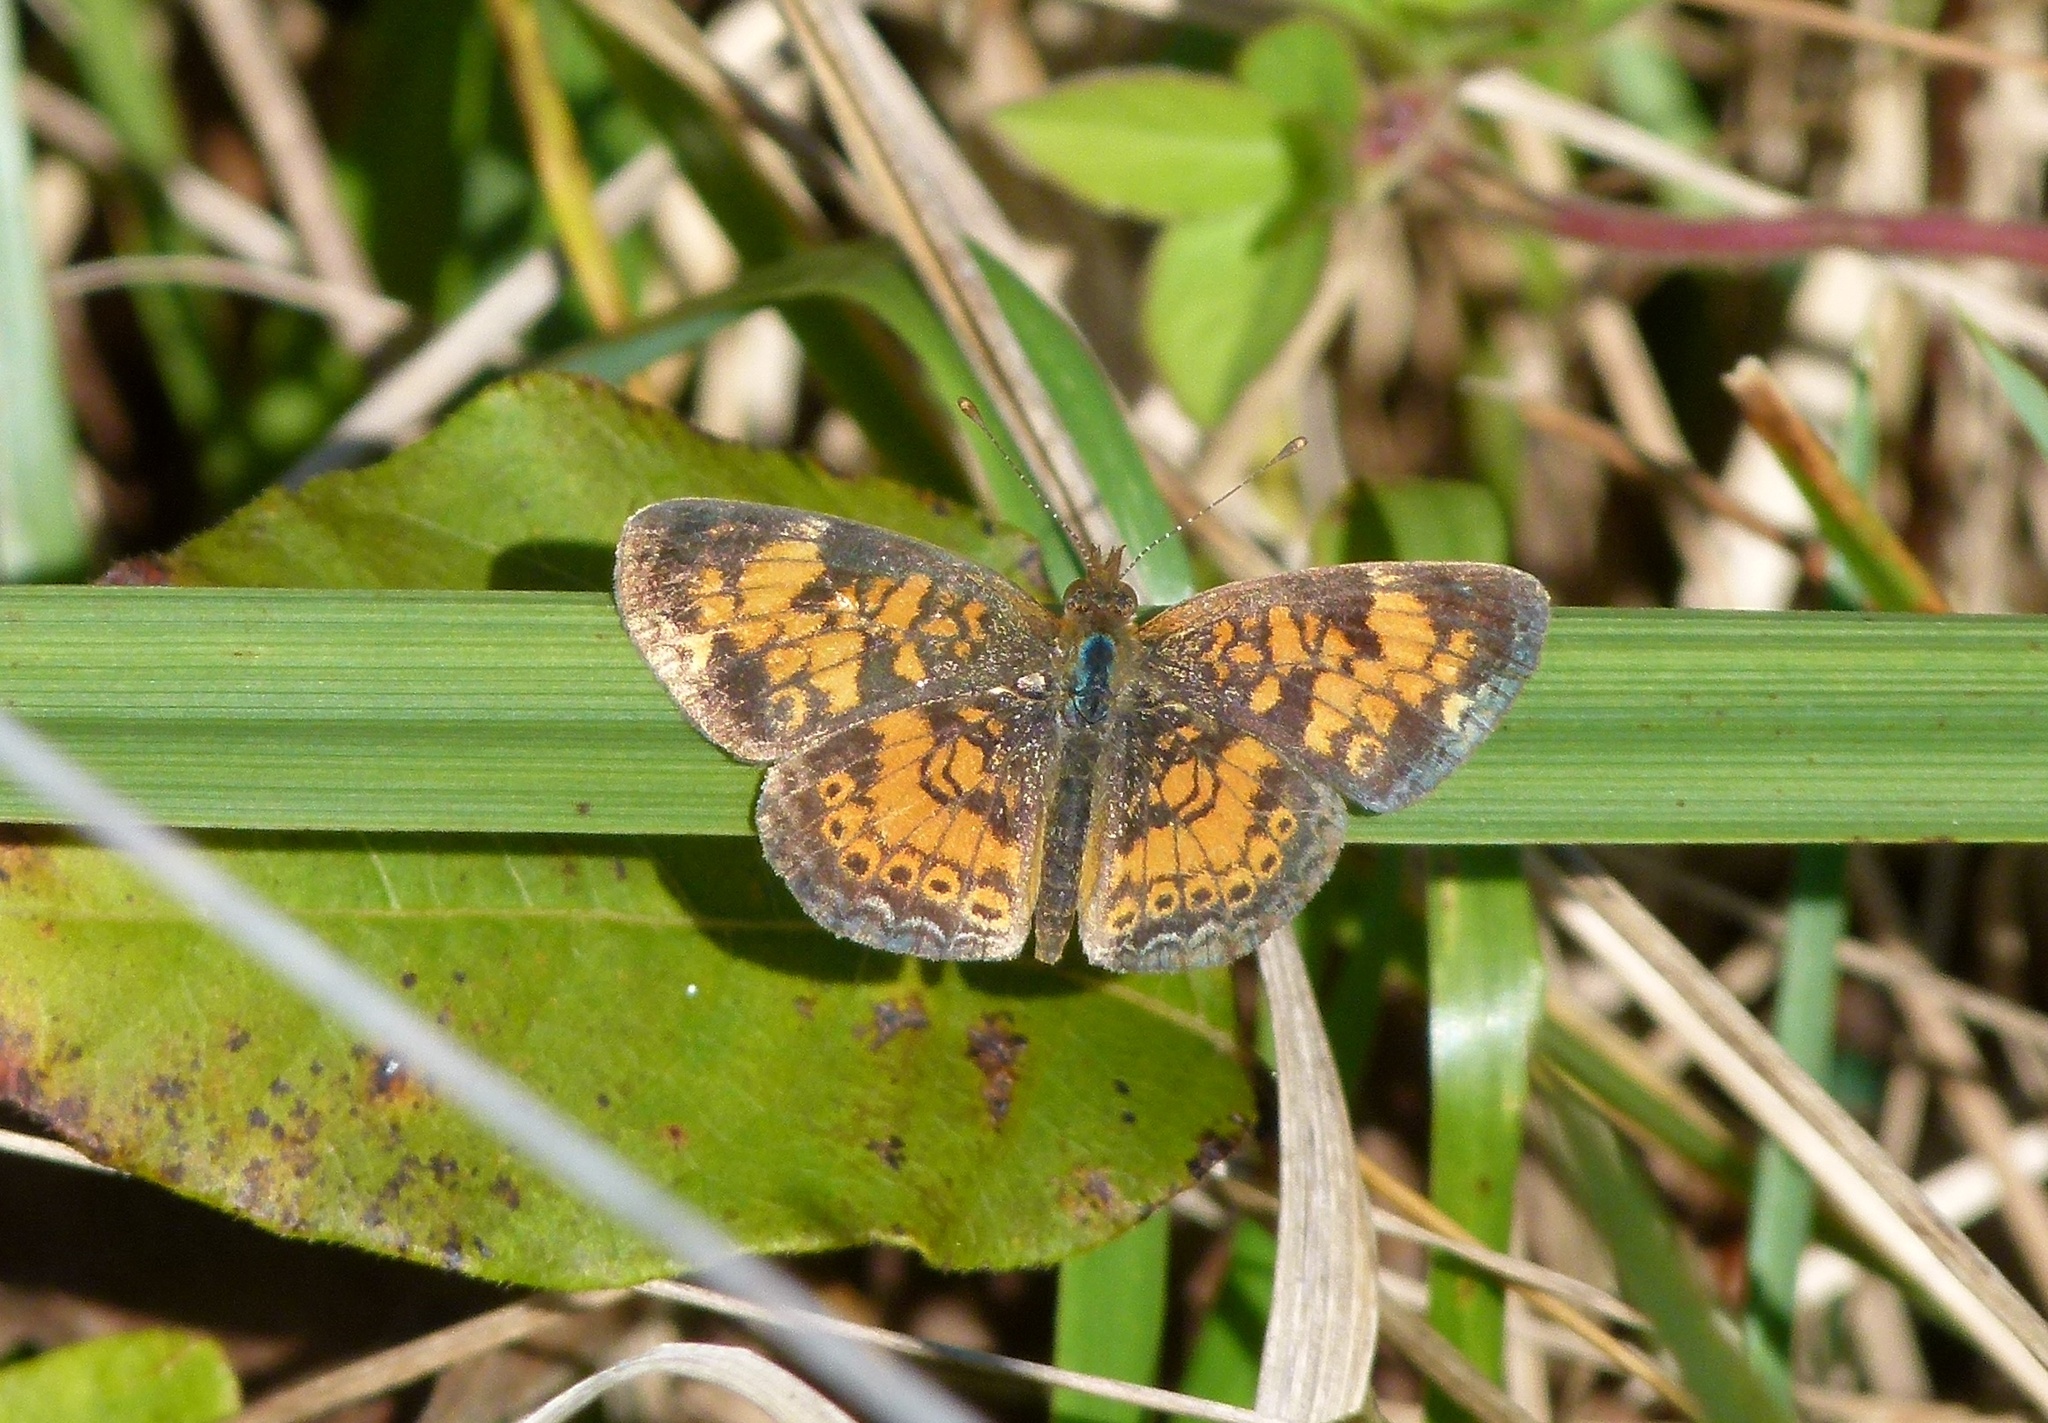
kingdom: Animalia
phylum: Arthropoda
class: Insecta
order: Lepidoptera
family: Nymphalidae
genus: Phyciodes
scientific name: Phyciodes tharos
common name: Pearl crescent
